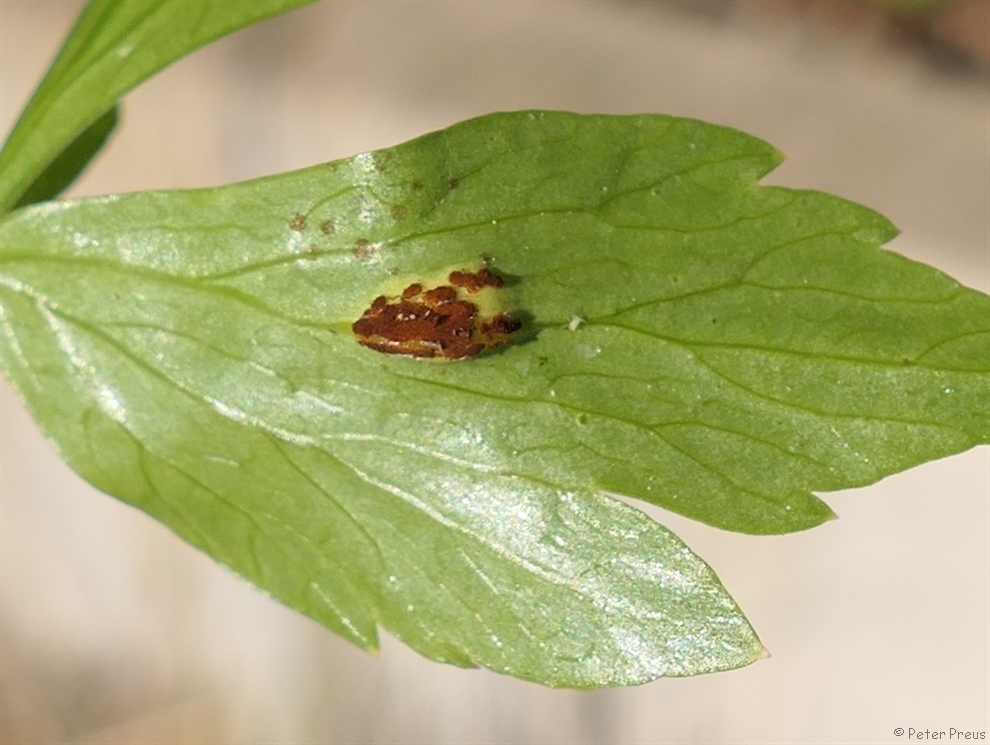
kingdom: Fungi
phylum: Basidiomycota
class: Pucciniomycetes
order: Pucciniales
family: Pucciniaceae
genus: Puccinia
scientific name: Puccinia bornmuelleri
